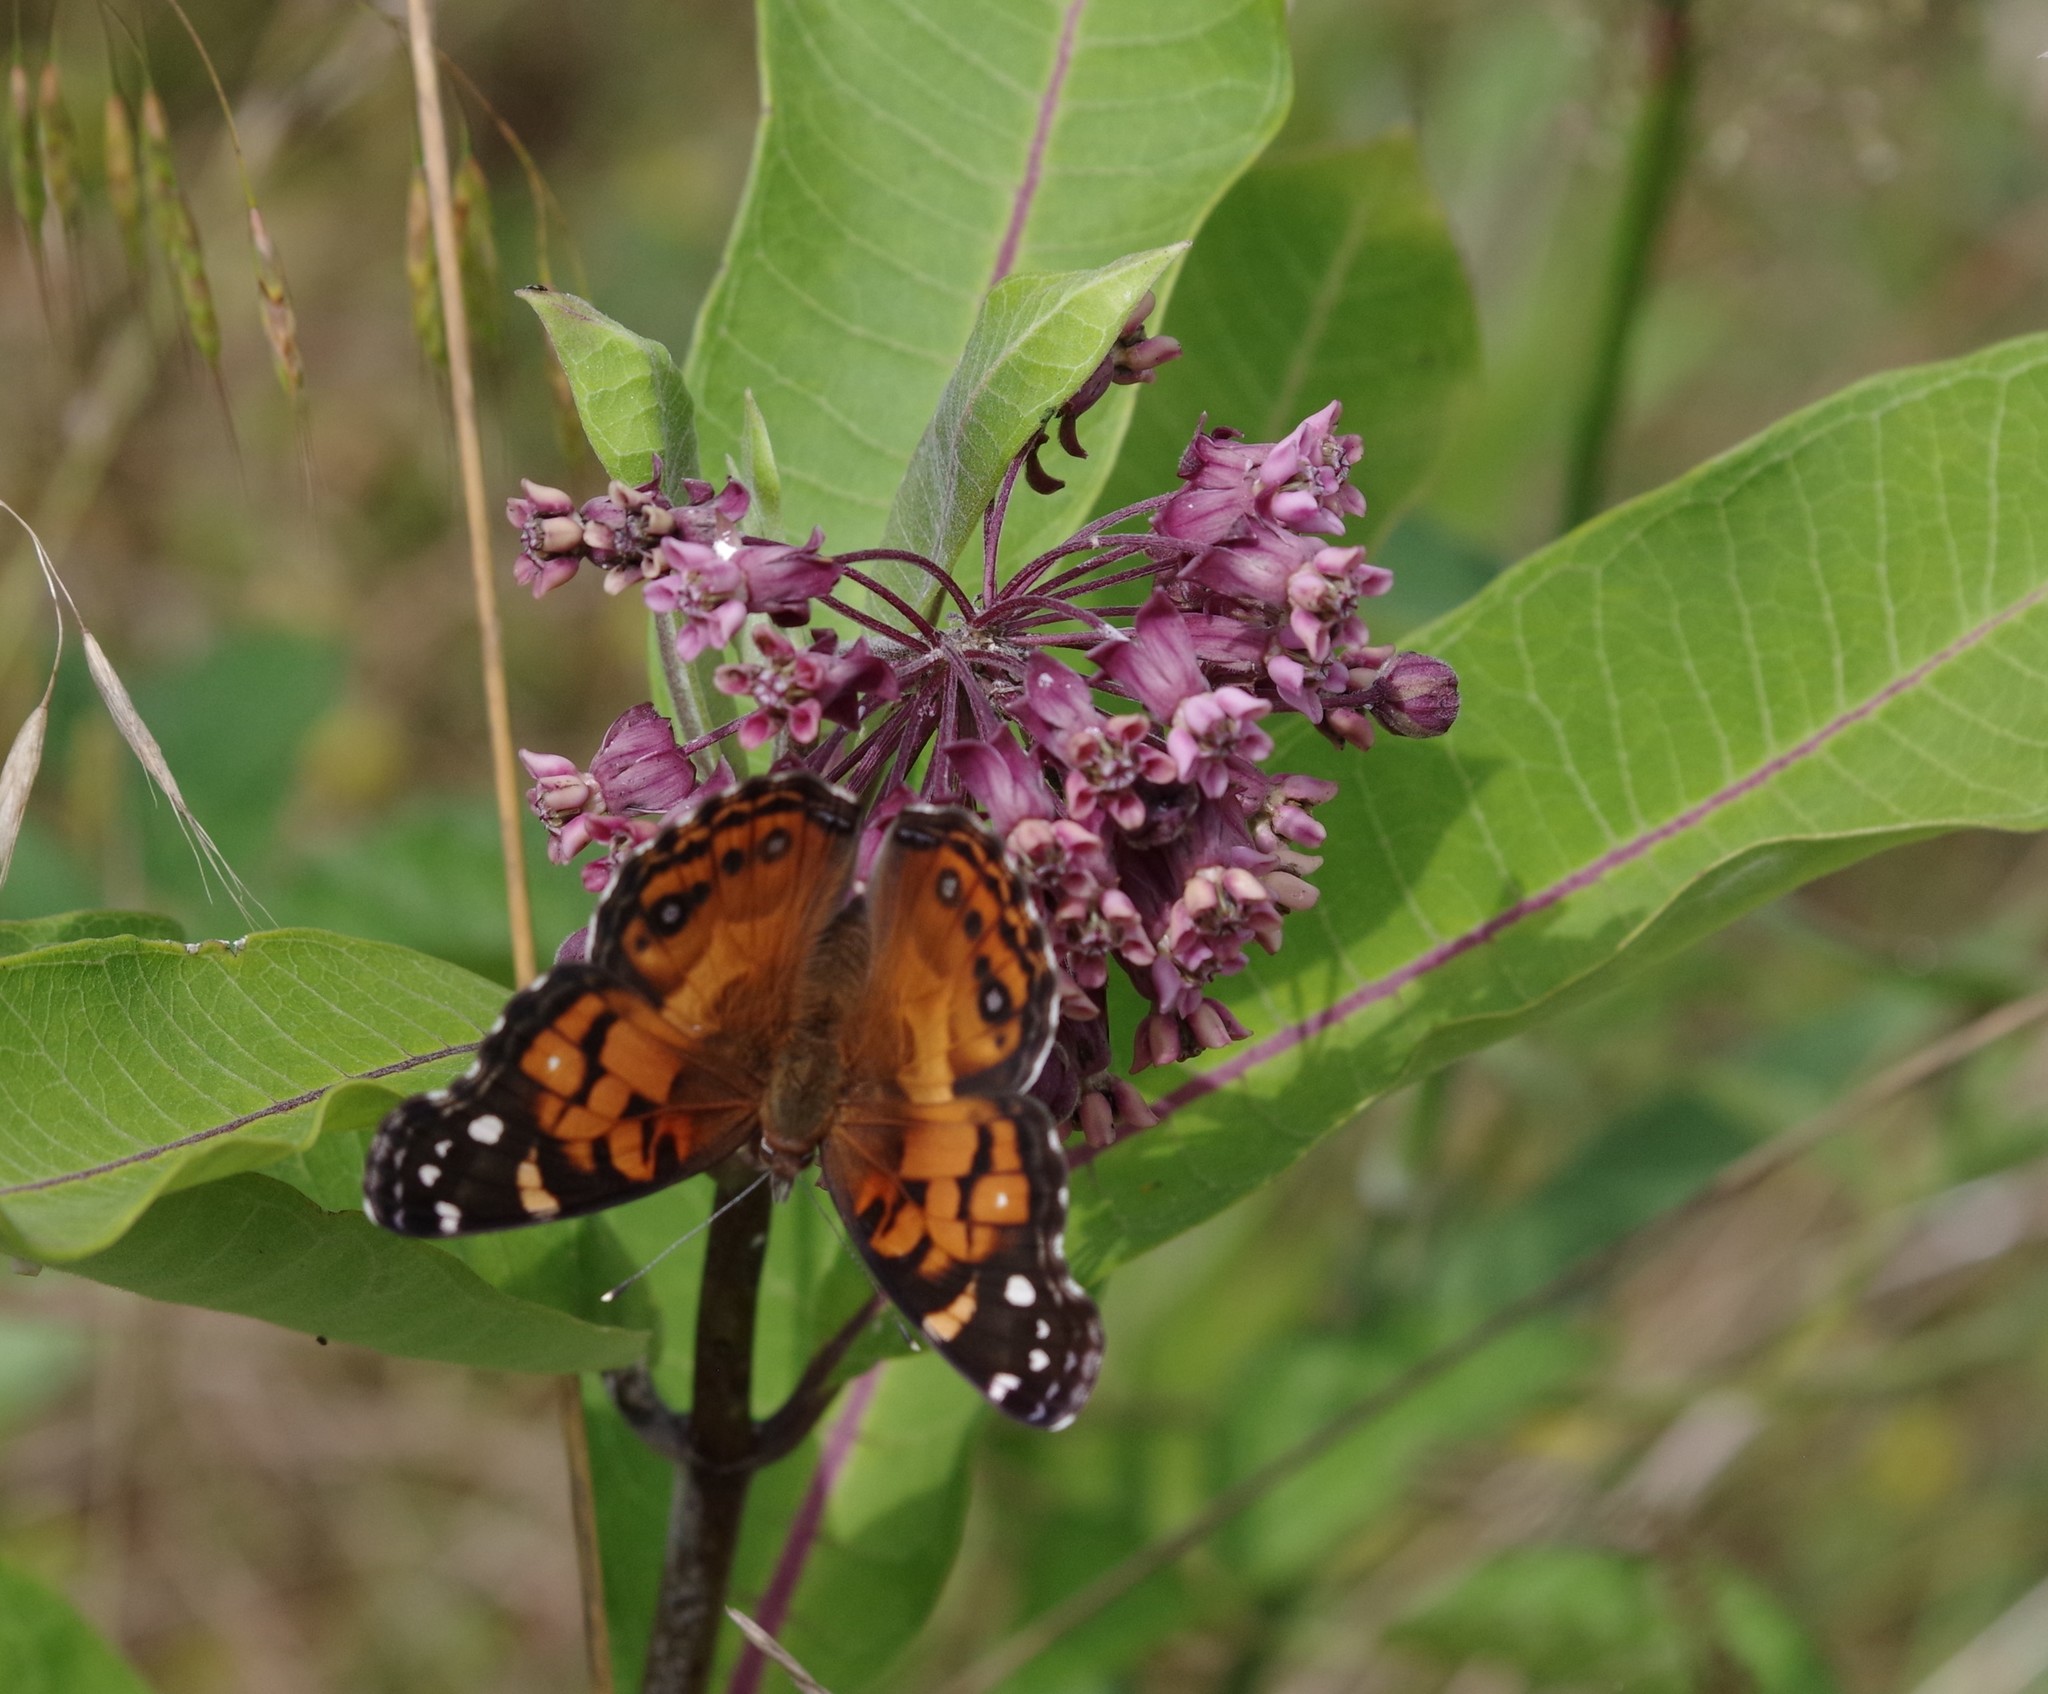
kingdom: Animalia
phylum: Arthropoda
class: Insecta
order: Lepidoptera
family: Nymphalidae
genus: Vanessa
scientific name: Vanessa virginiensis
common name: American lady
